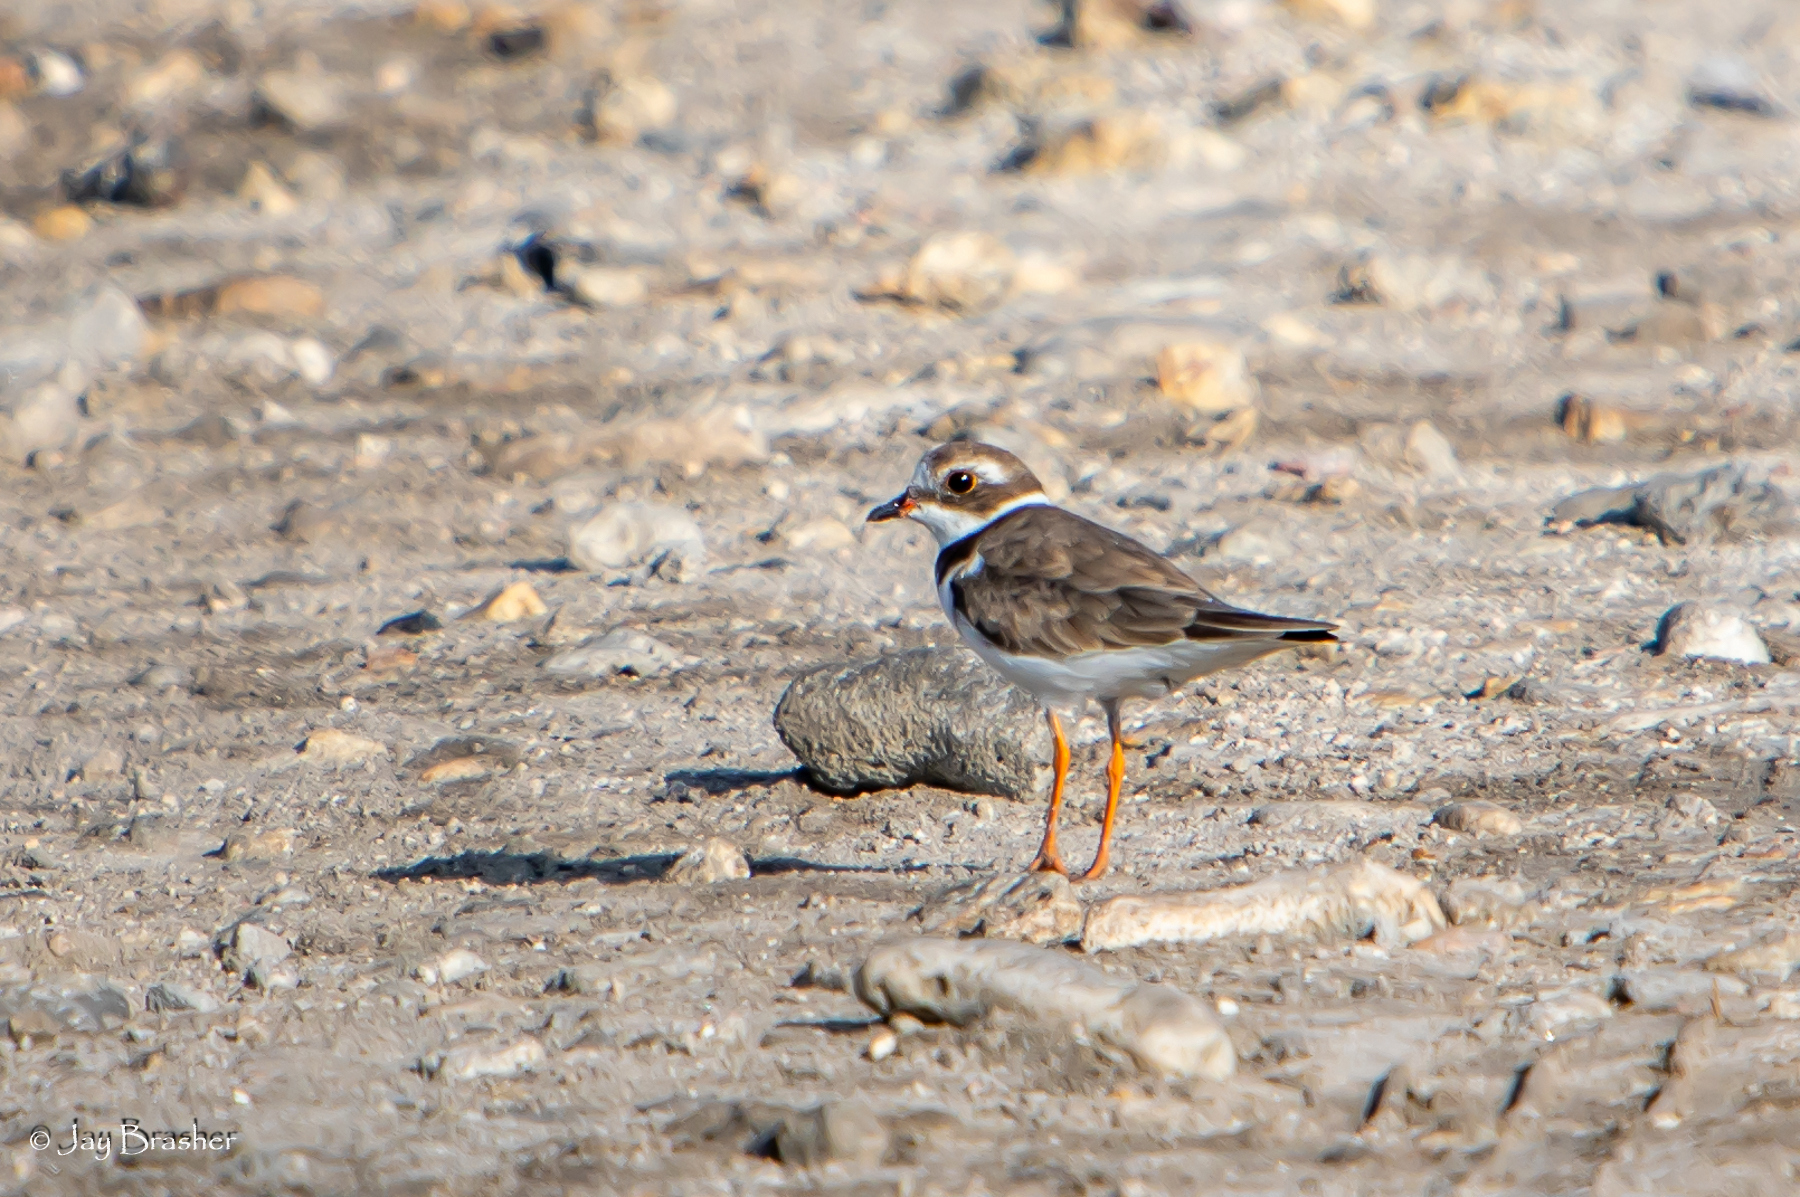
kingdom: Animalia
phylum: Chordata
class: Aves
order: Charadriiformes
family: Charadriidae
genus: Charadrius
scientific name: Charadrius semipalmatus
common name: Semipalmated plover
